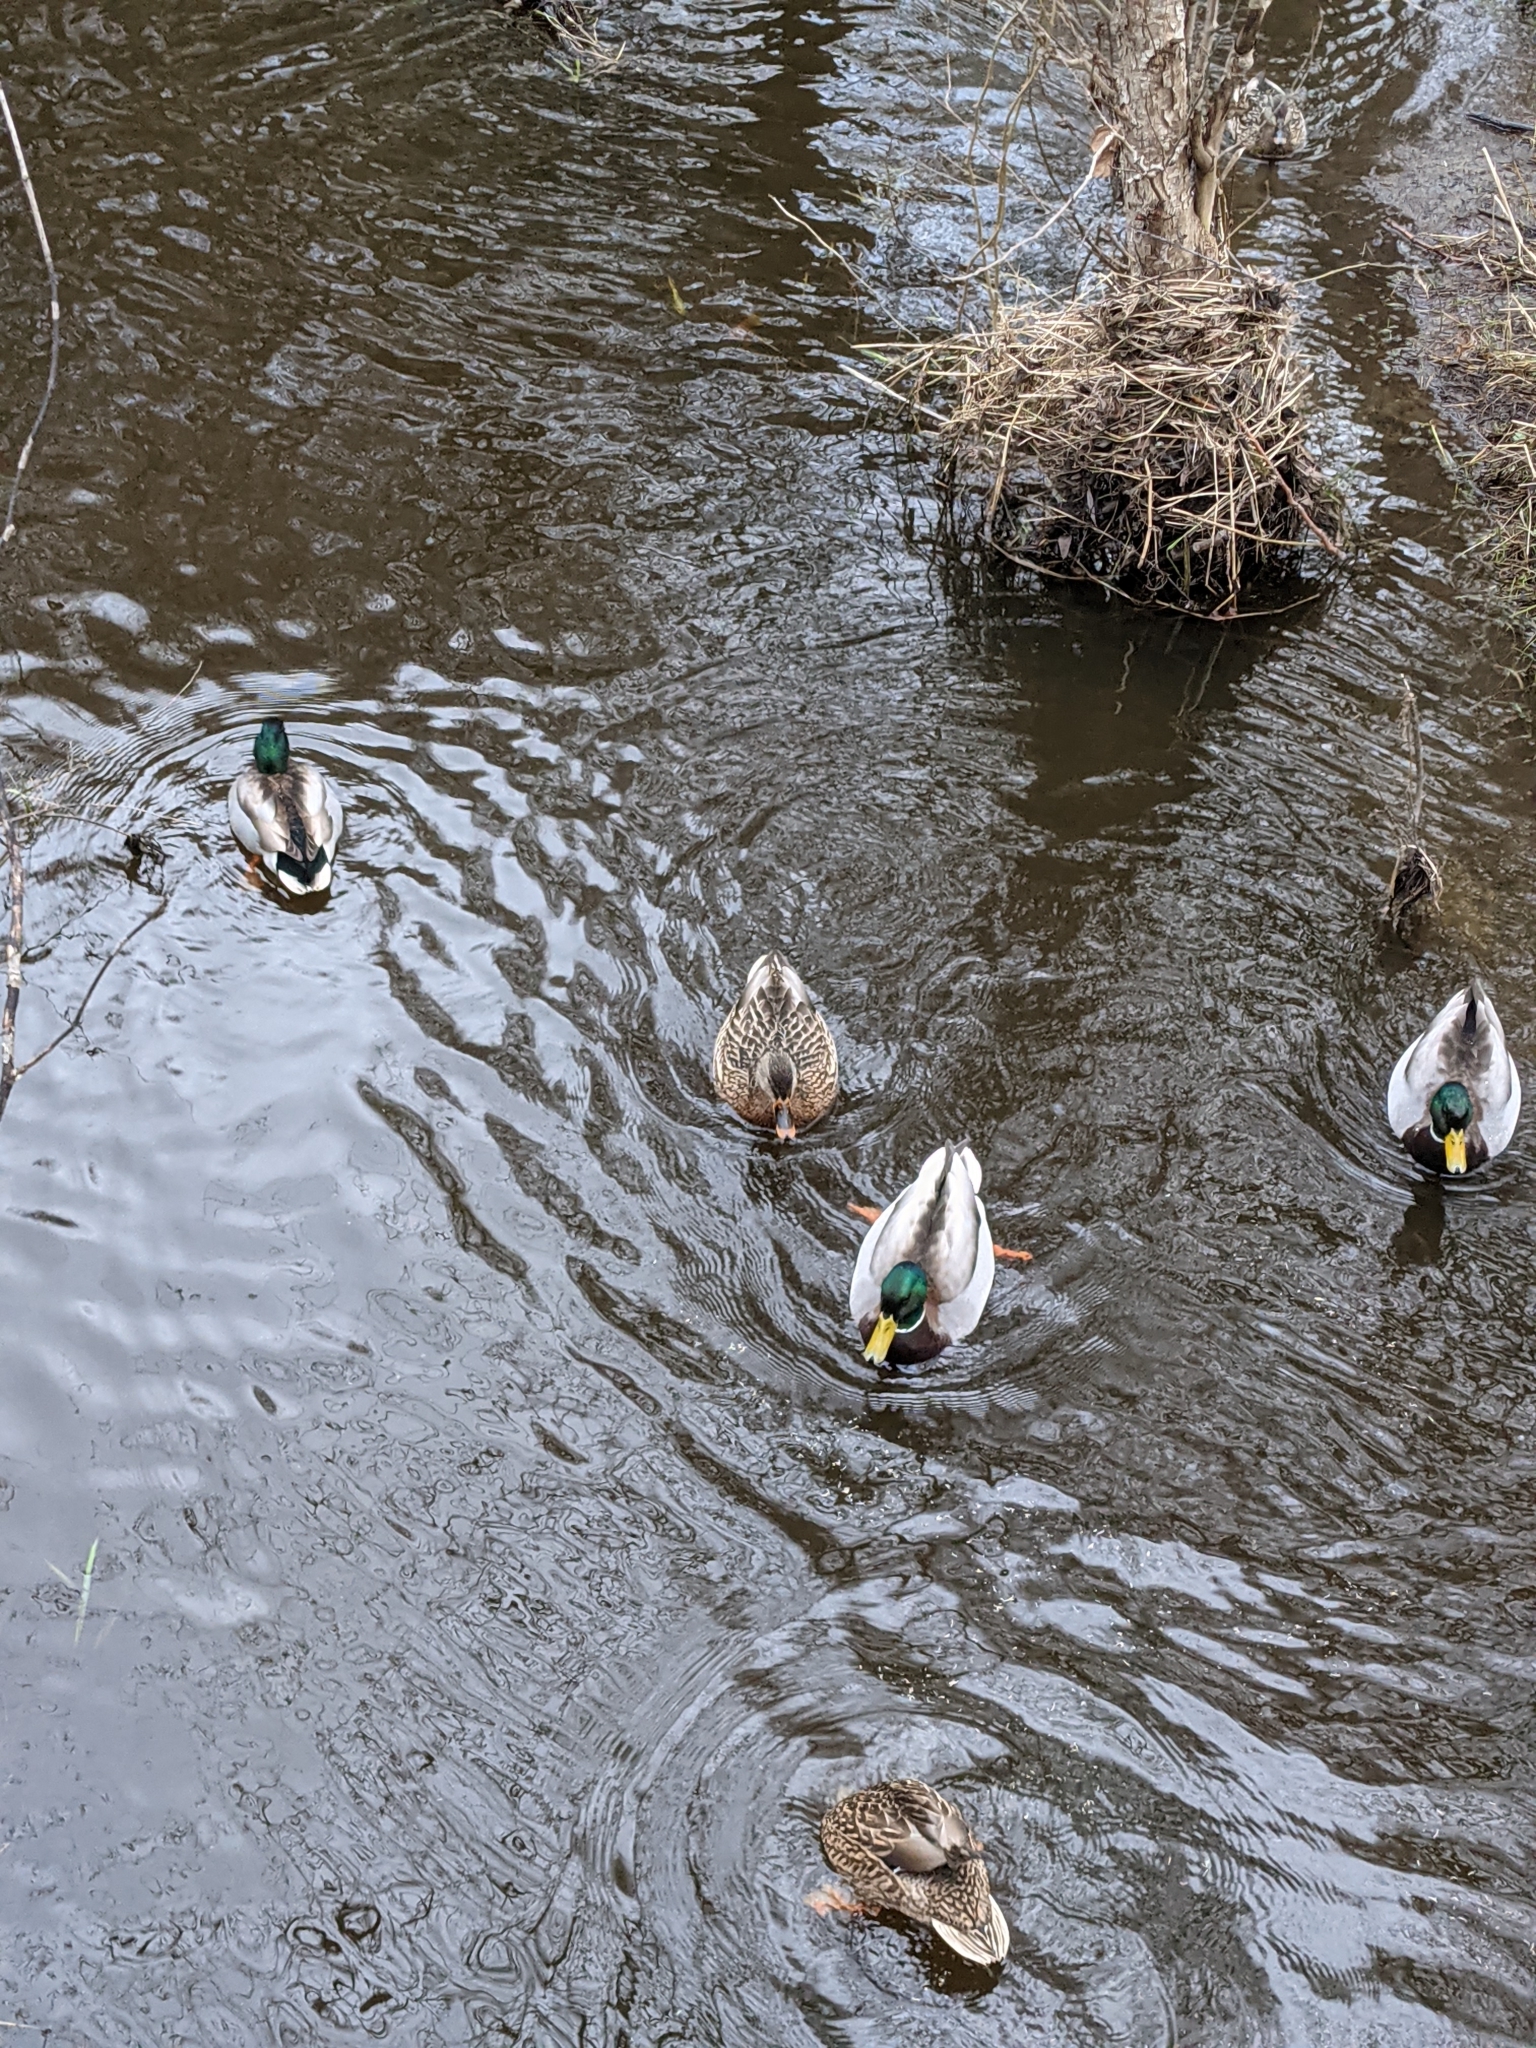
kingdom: Animalia
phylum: Chordata
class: Aves
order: Anseriformes
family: Anatidae
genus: Anas
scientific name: Anas platyrhynchos
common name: Mallard
